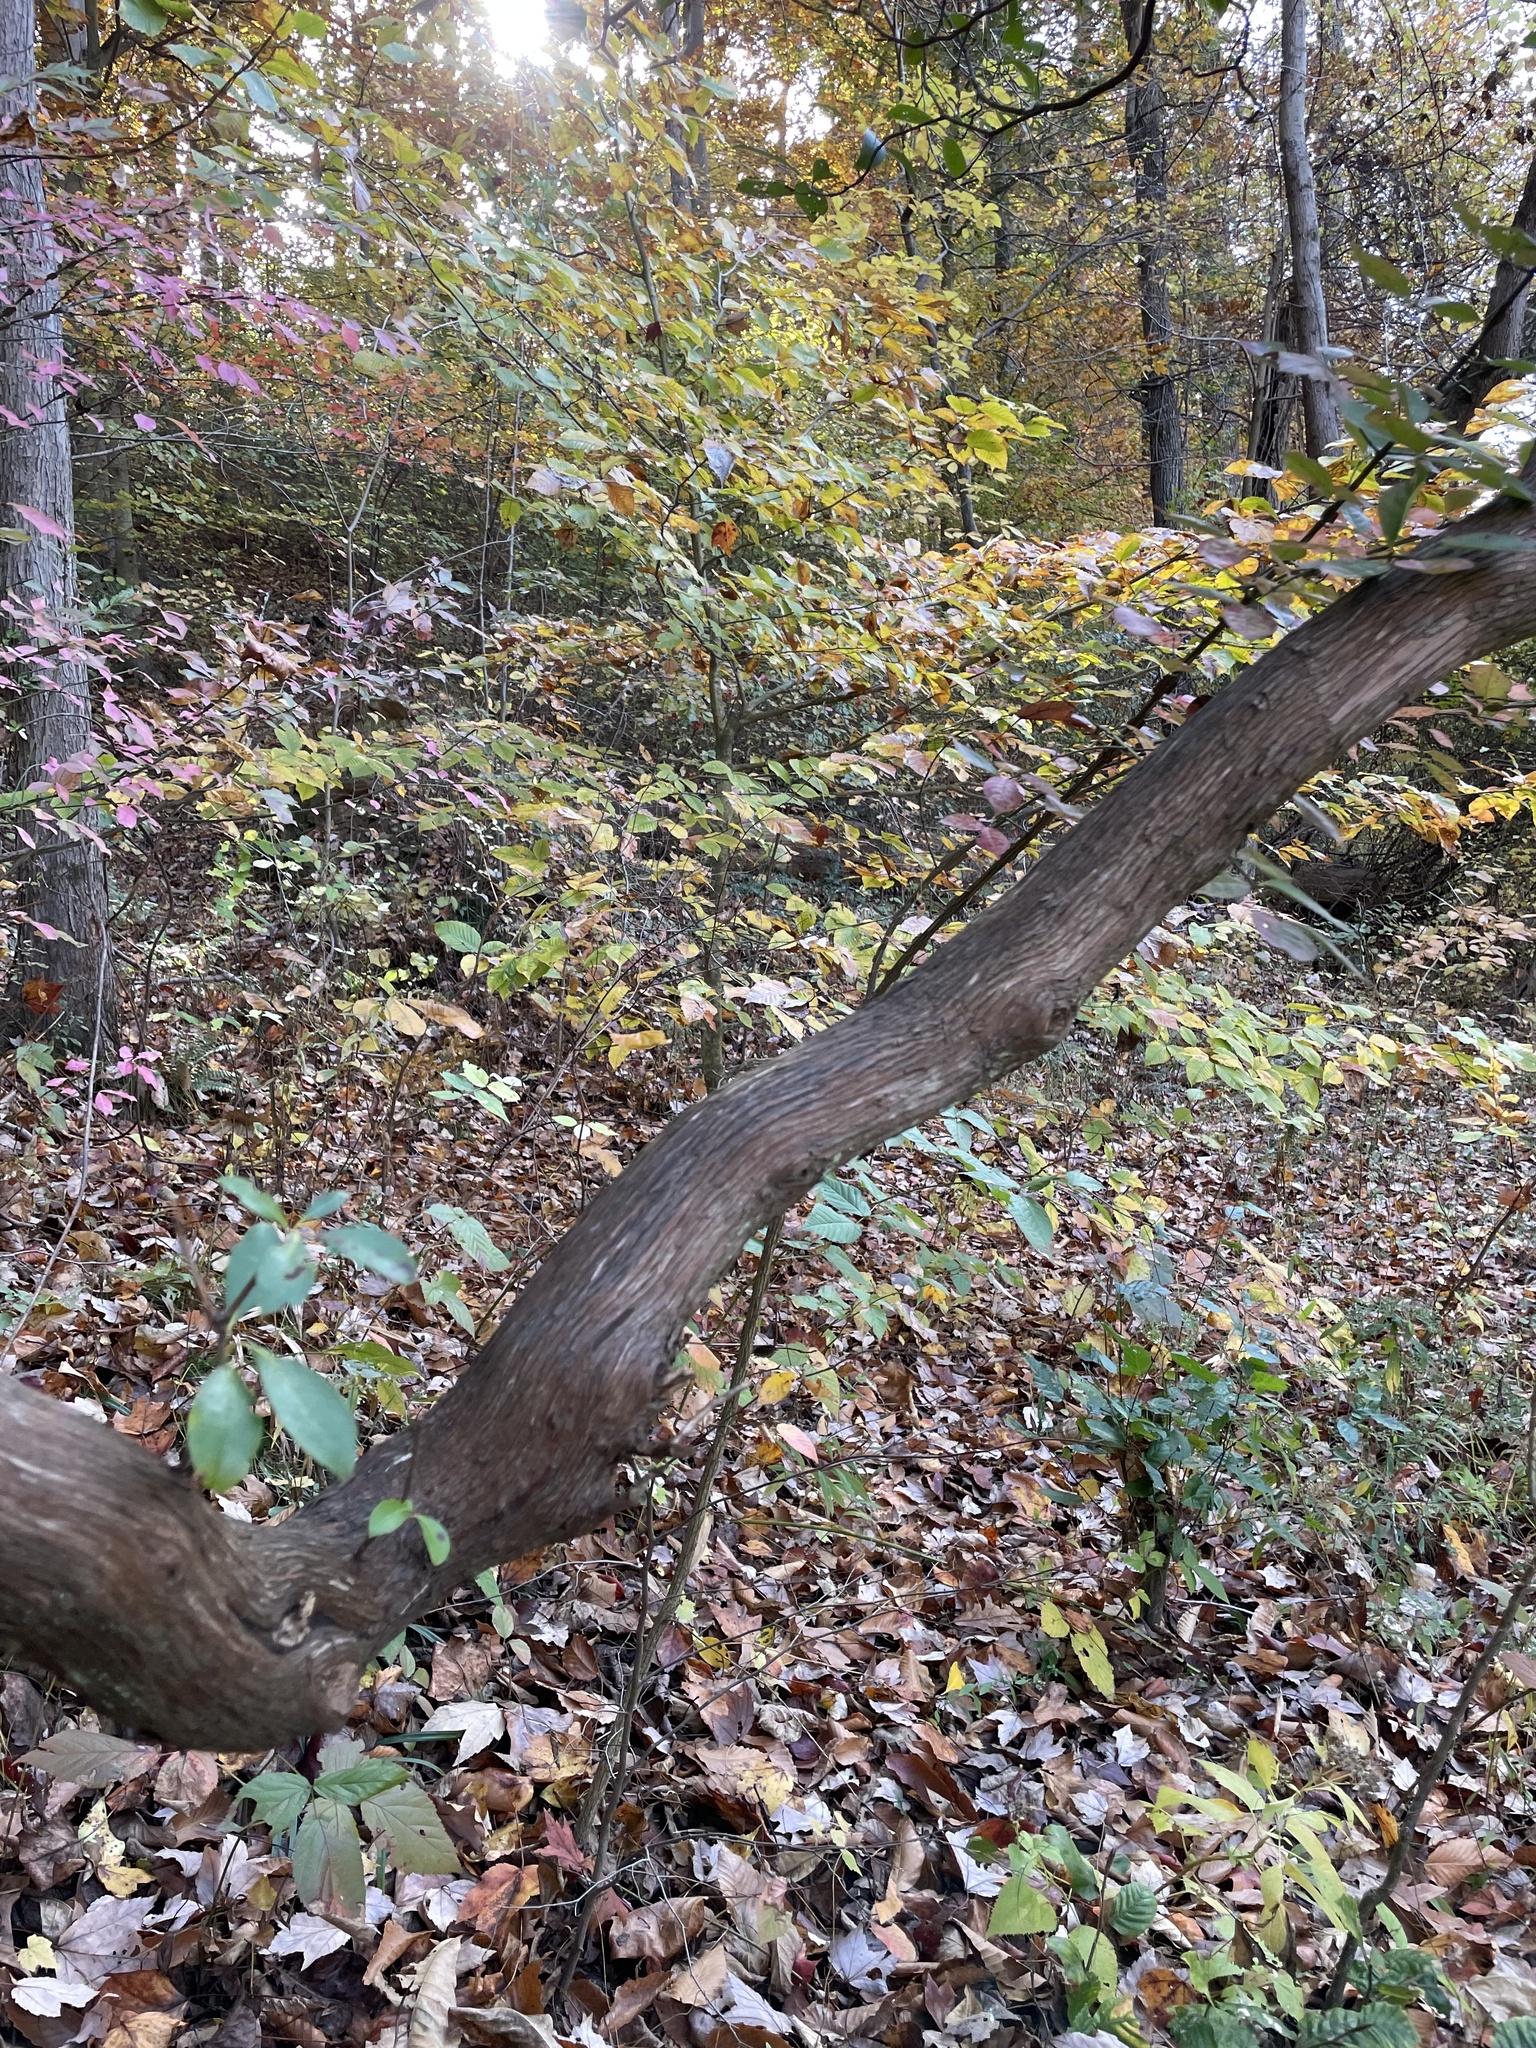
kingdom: Plantae
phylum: Tracheophyta
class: Magnoliopsida
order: Ericales
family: Ericaceae
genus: Kalmia
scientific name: Kalmia latifolia
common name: Mountain-laurel
